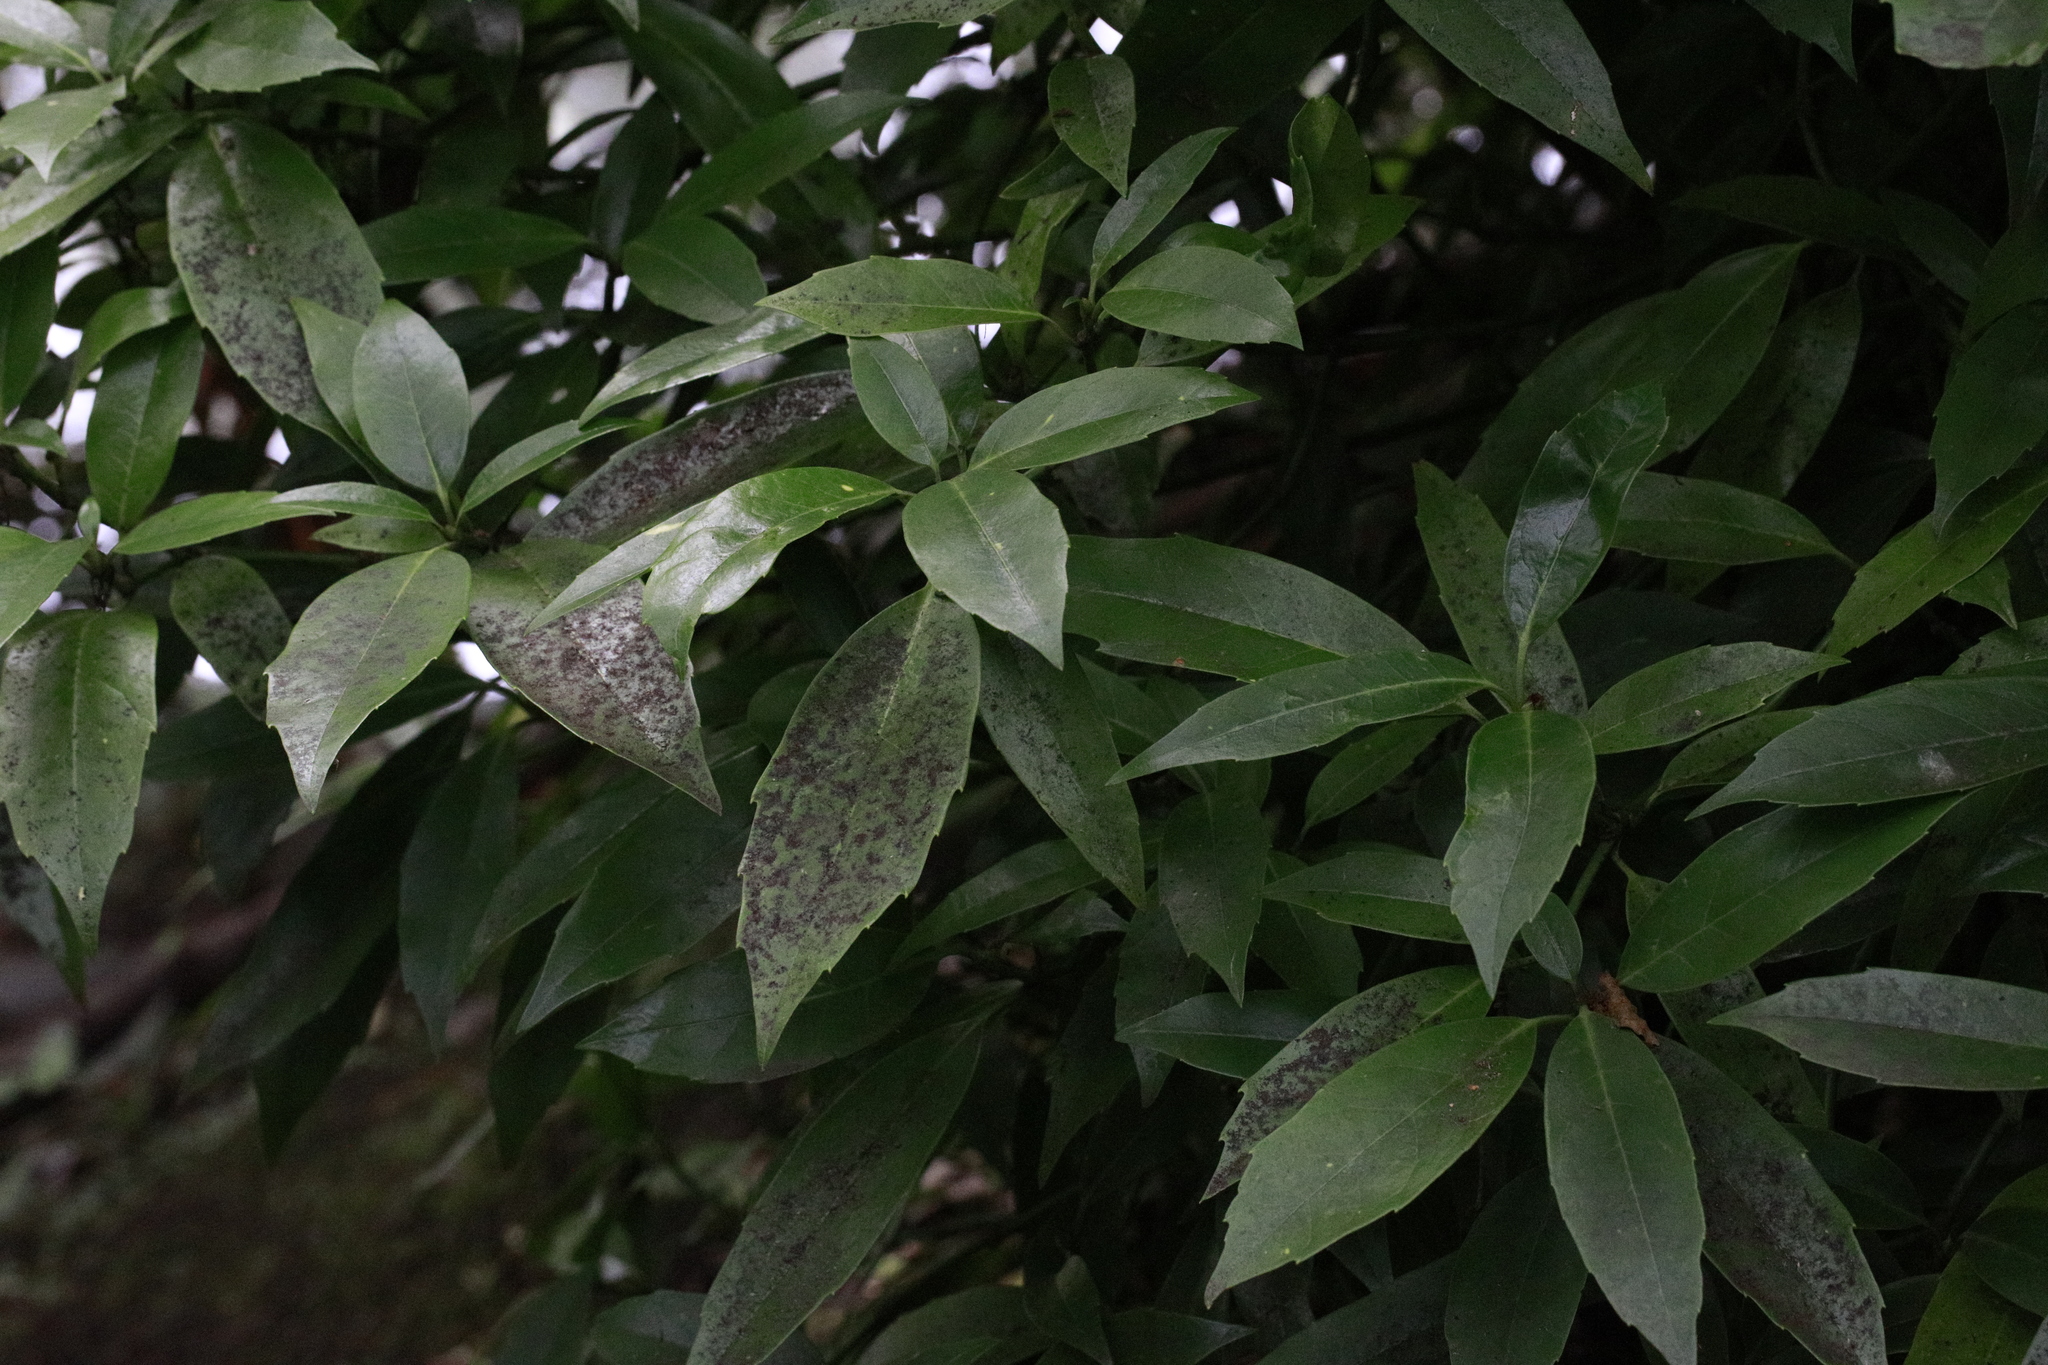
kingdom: Plantae
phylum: Tracheophyta
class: Magnoliopsida
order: Garryales
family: Garryaceae
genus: Aucuba
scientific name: Aucuba japonica
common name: Spotted-laurel
